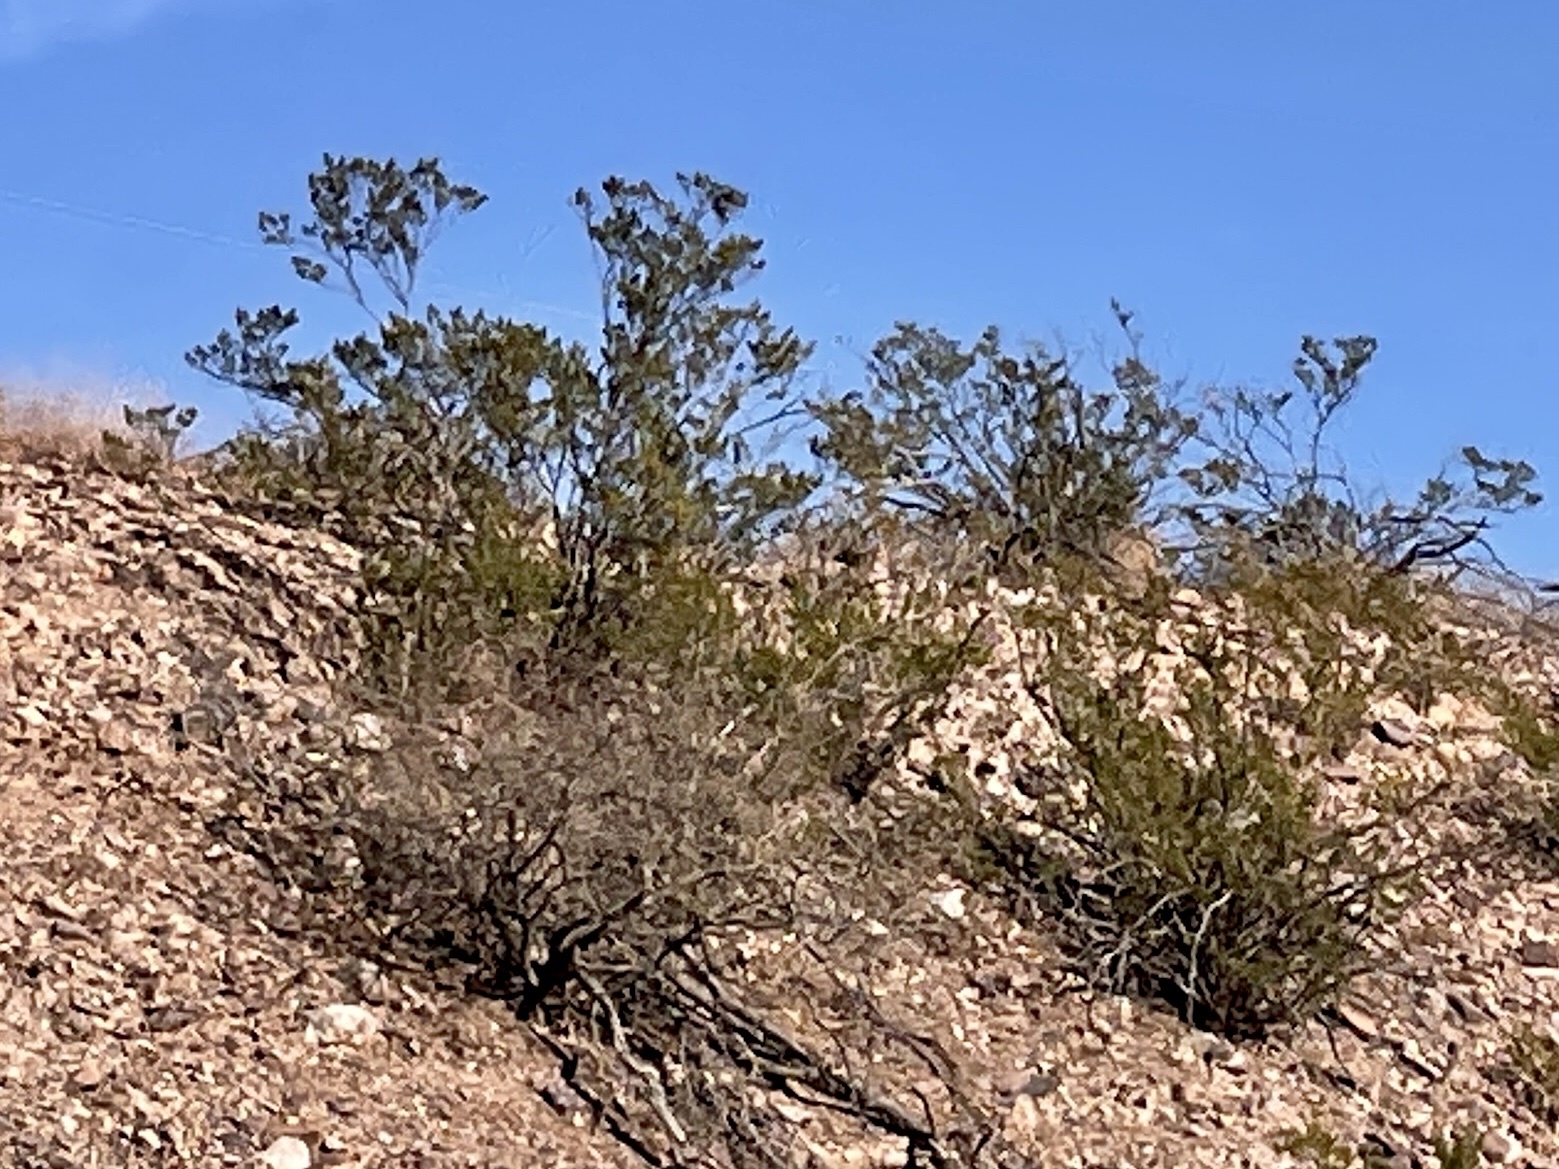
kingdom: Plantae
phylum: Tracheophyta
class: Magnoliopsida
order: Zygophyllales
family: Zygophyllaceae
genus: Larrea
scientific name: Larrea tridentata
